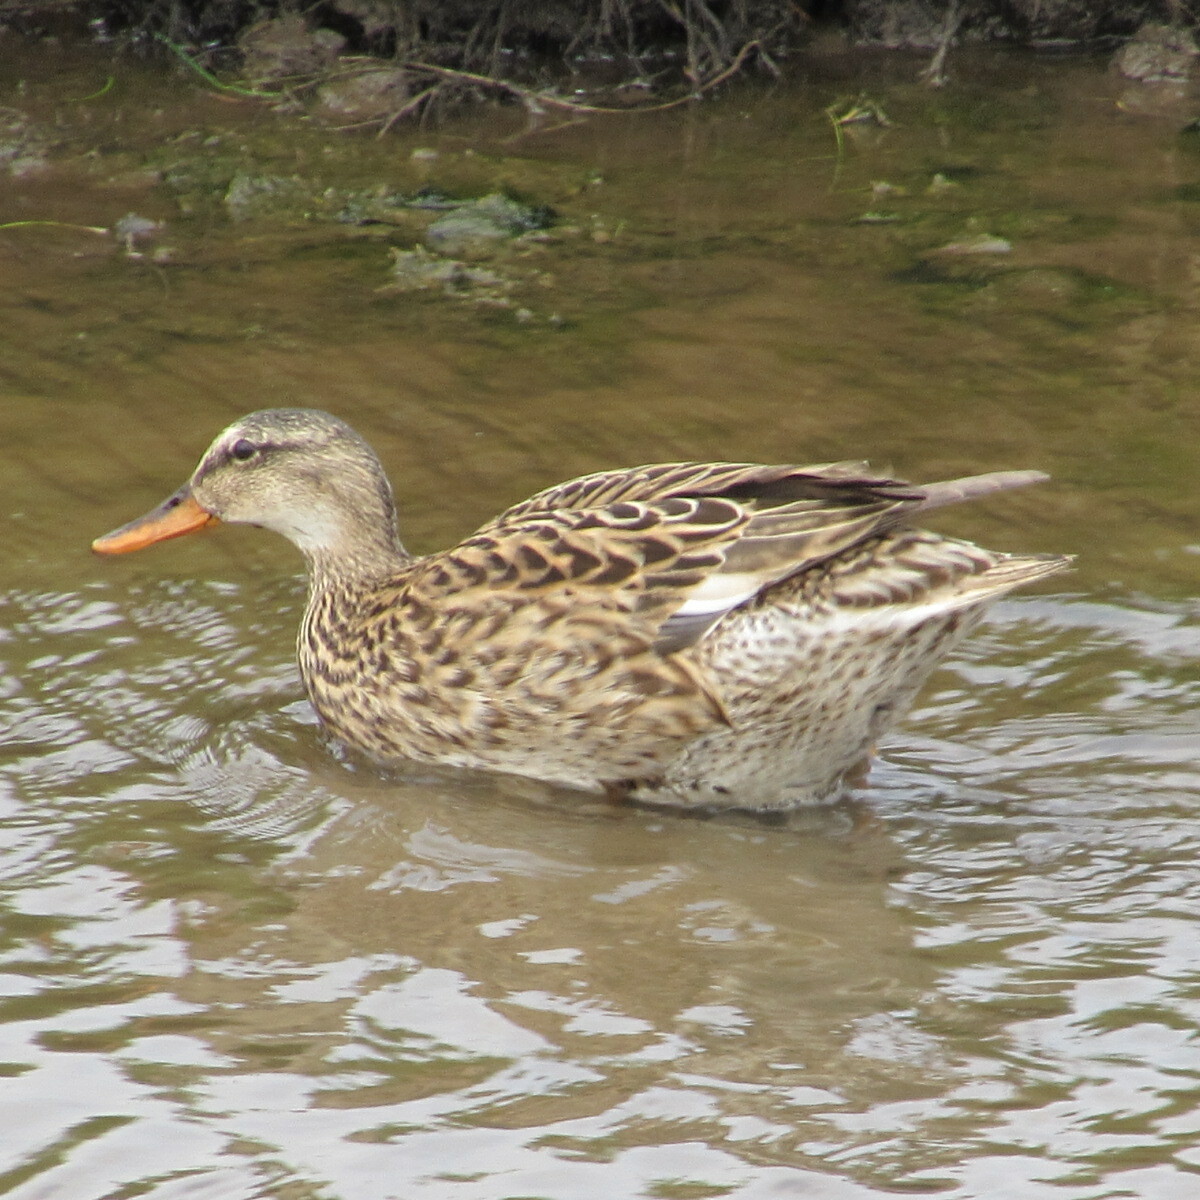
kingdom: Animalia
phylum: Chordata
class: Aves
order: Anseriformes
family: Anatidae
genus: Mareca
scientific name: Mareca strepera
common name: Gadwall
